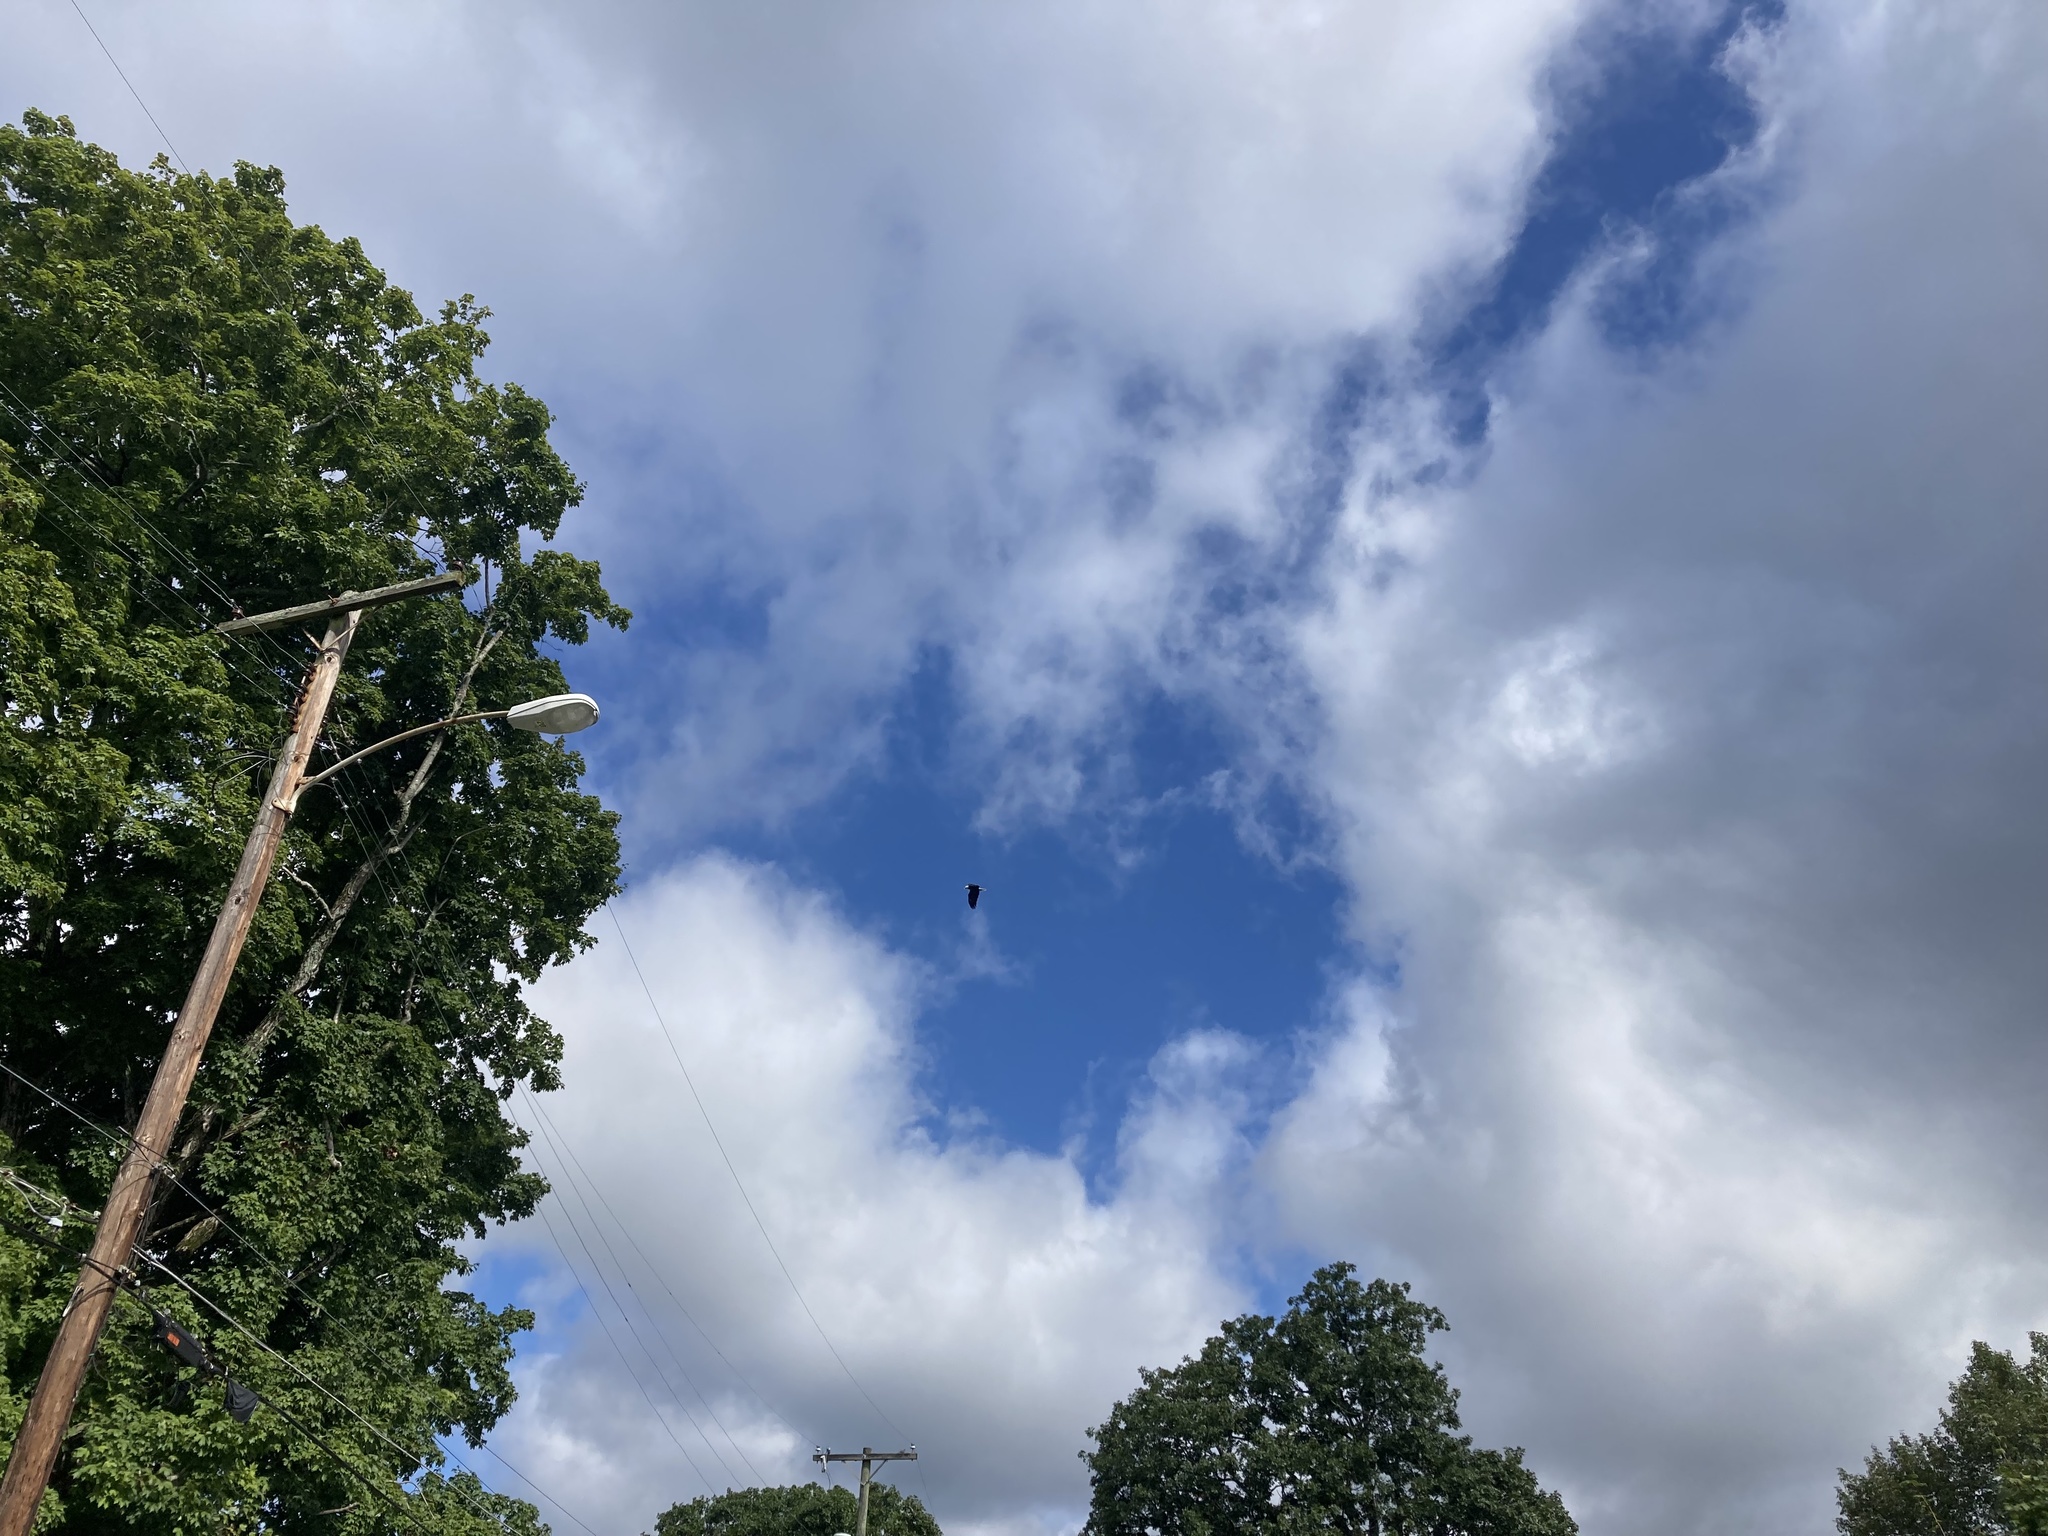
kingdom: Animalia
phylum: Chordata
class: Aves
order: Accipitriformes
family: Accipitridae
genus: Haliaeetus
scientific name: Haliaeetus leucocephalus
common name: Bald eagle
